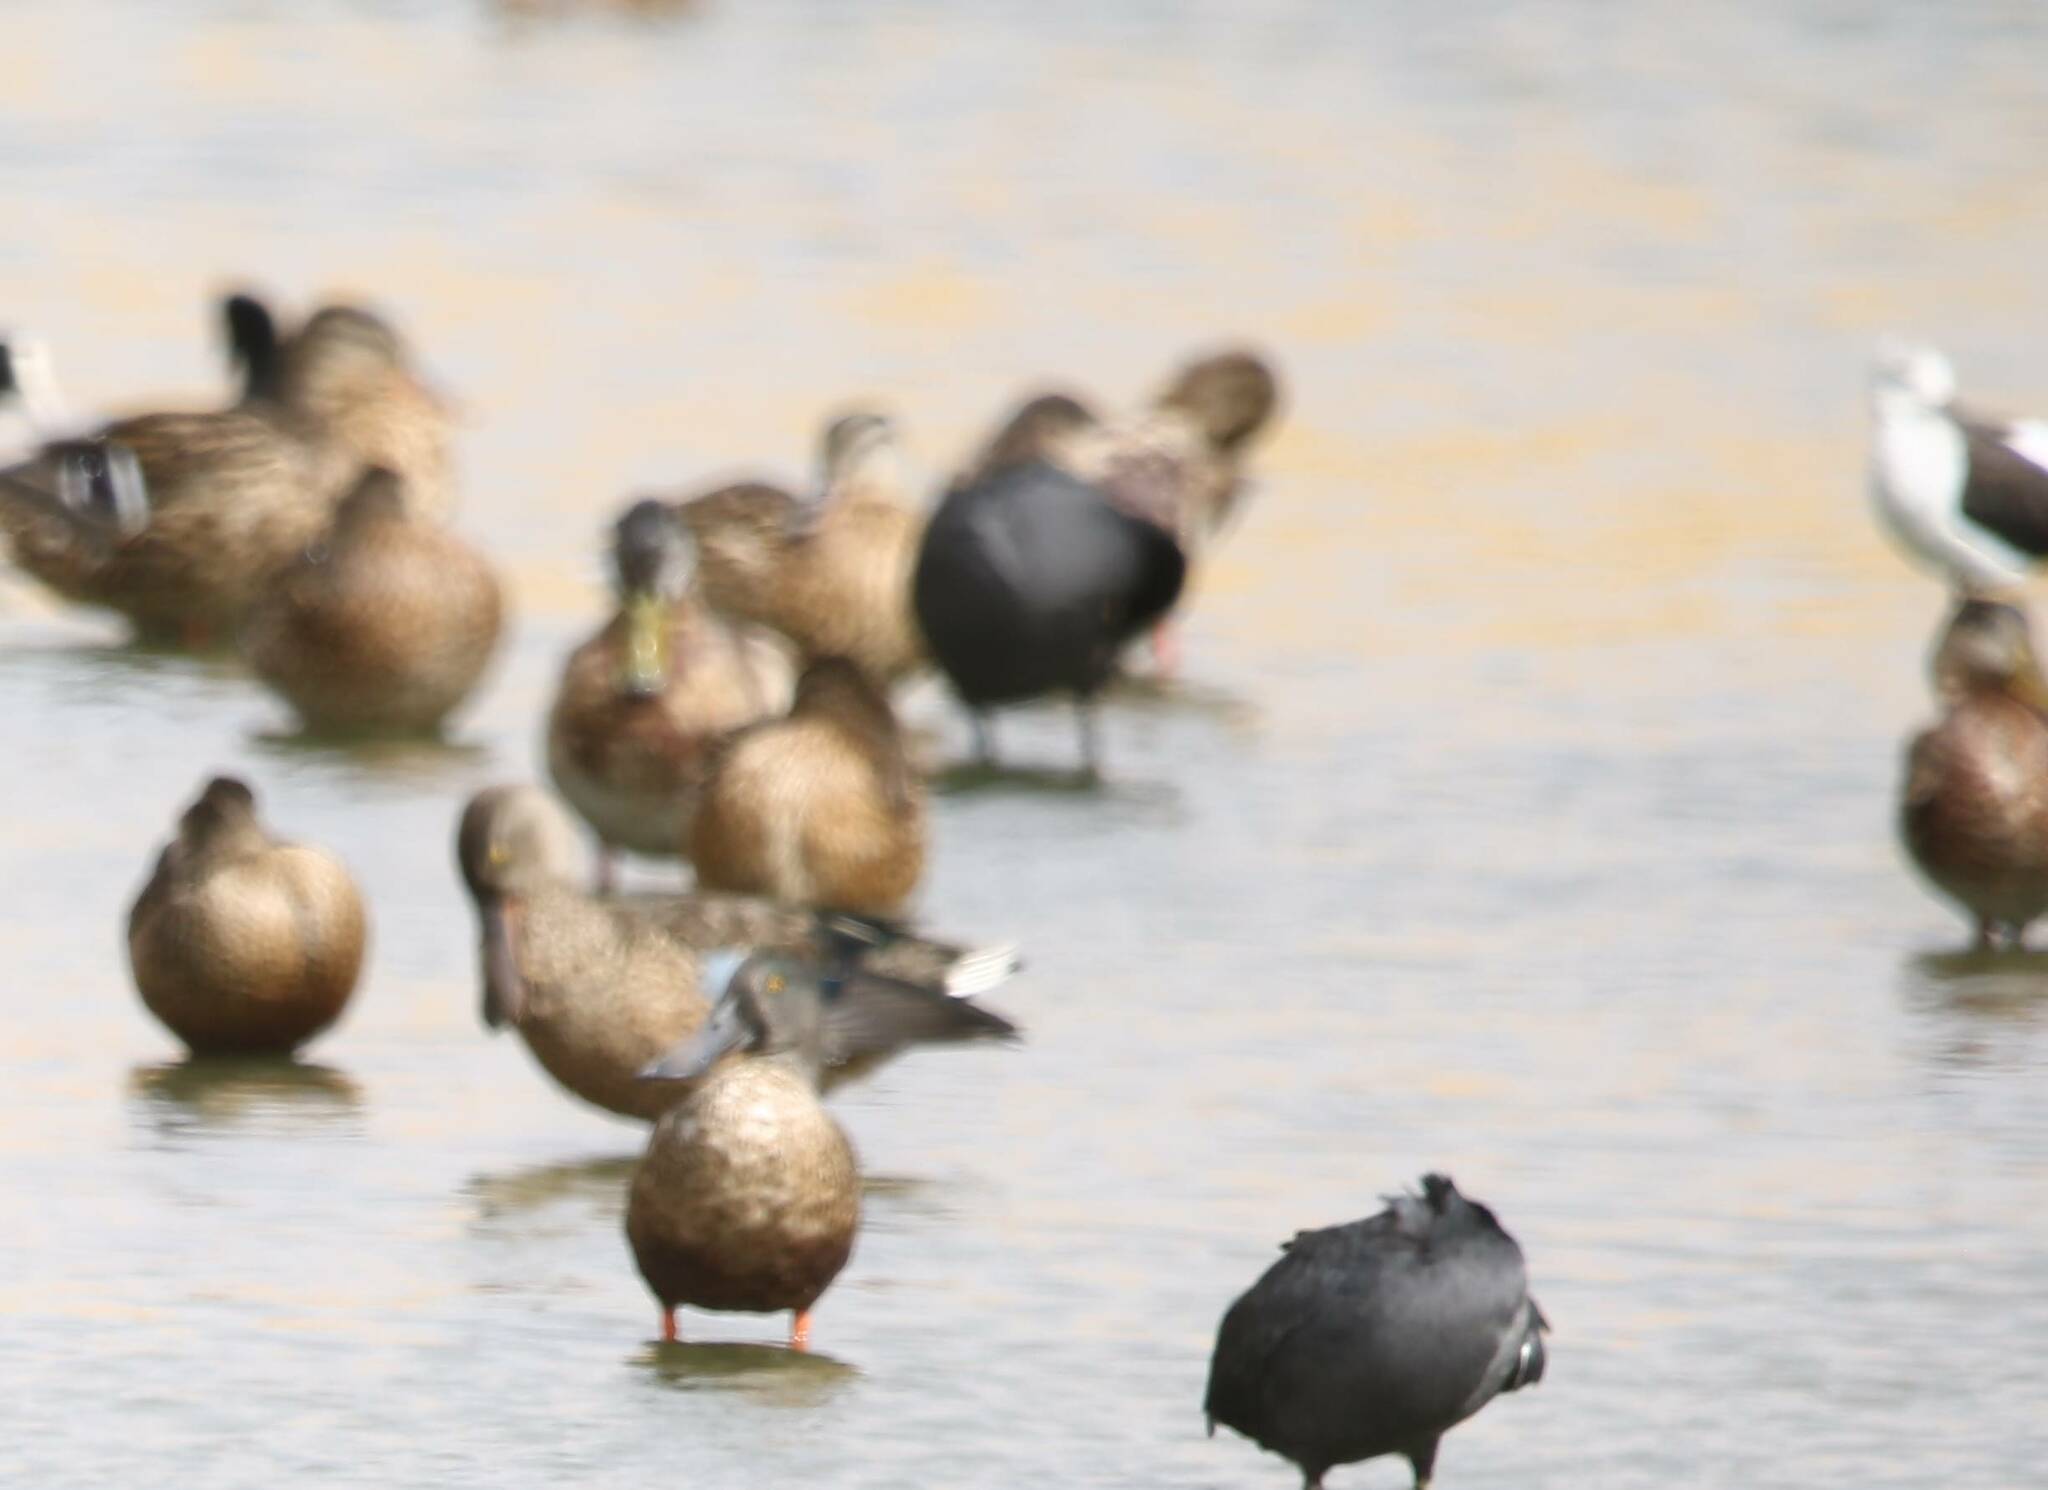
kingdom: Animalia
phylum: Chordata
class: Aves
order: Anseriformes
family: Anatidae
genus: Spatula
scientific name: Spatula clypeata
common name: Northern shoveler
